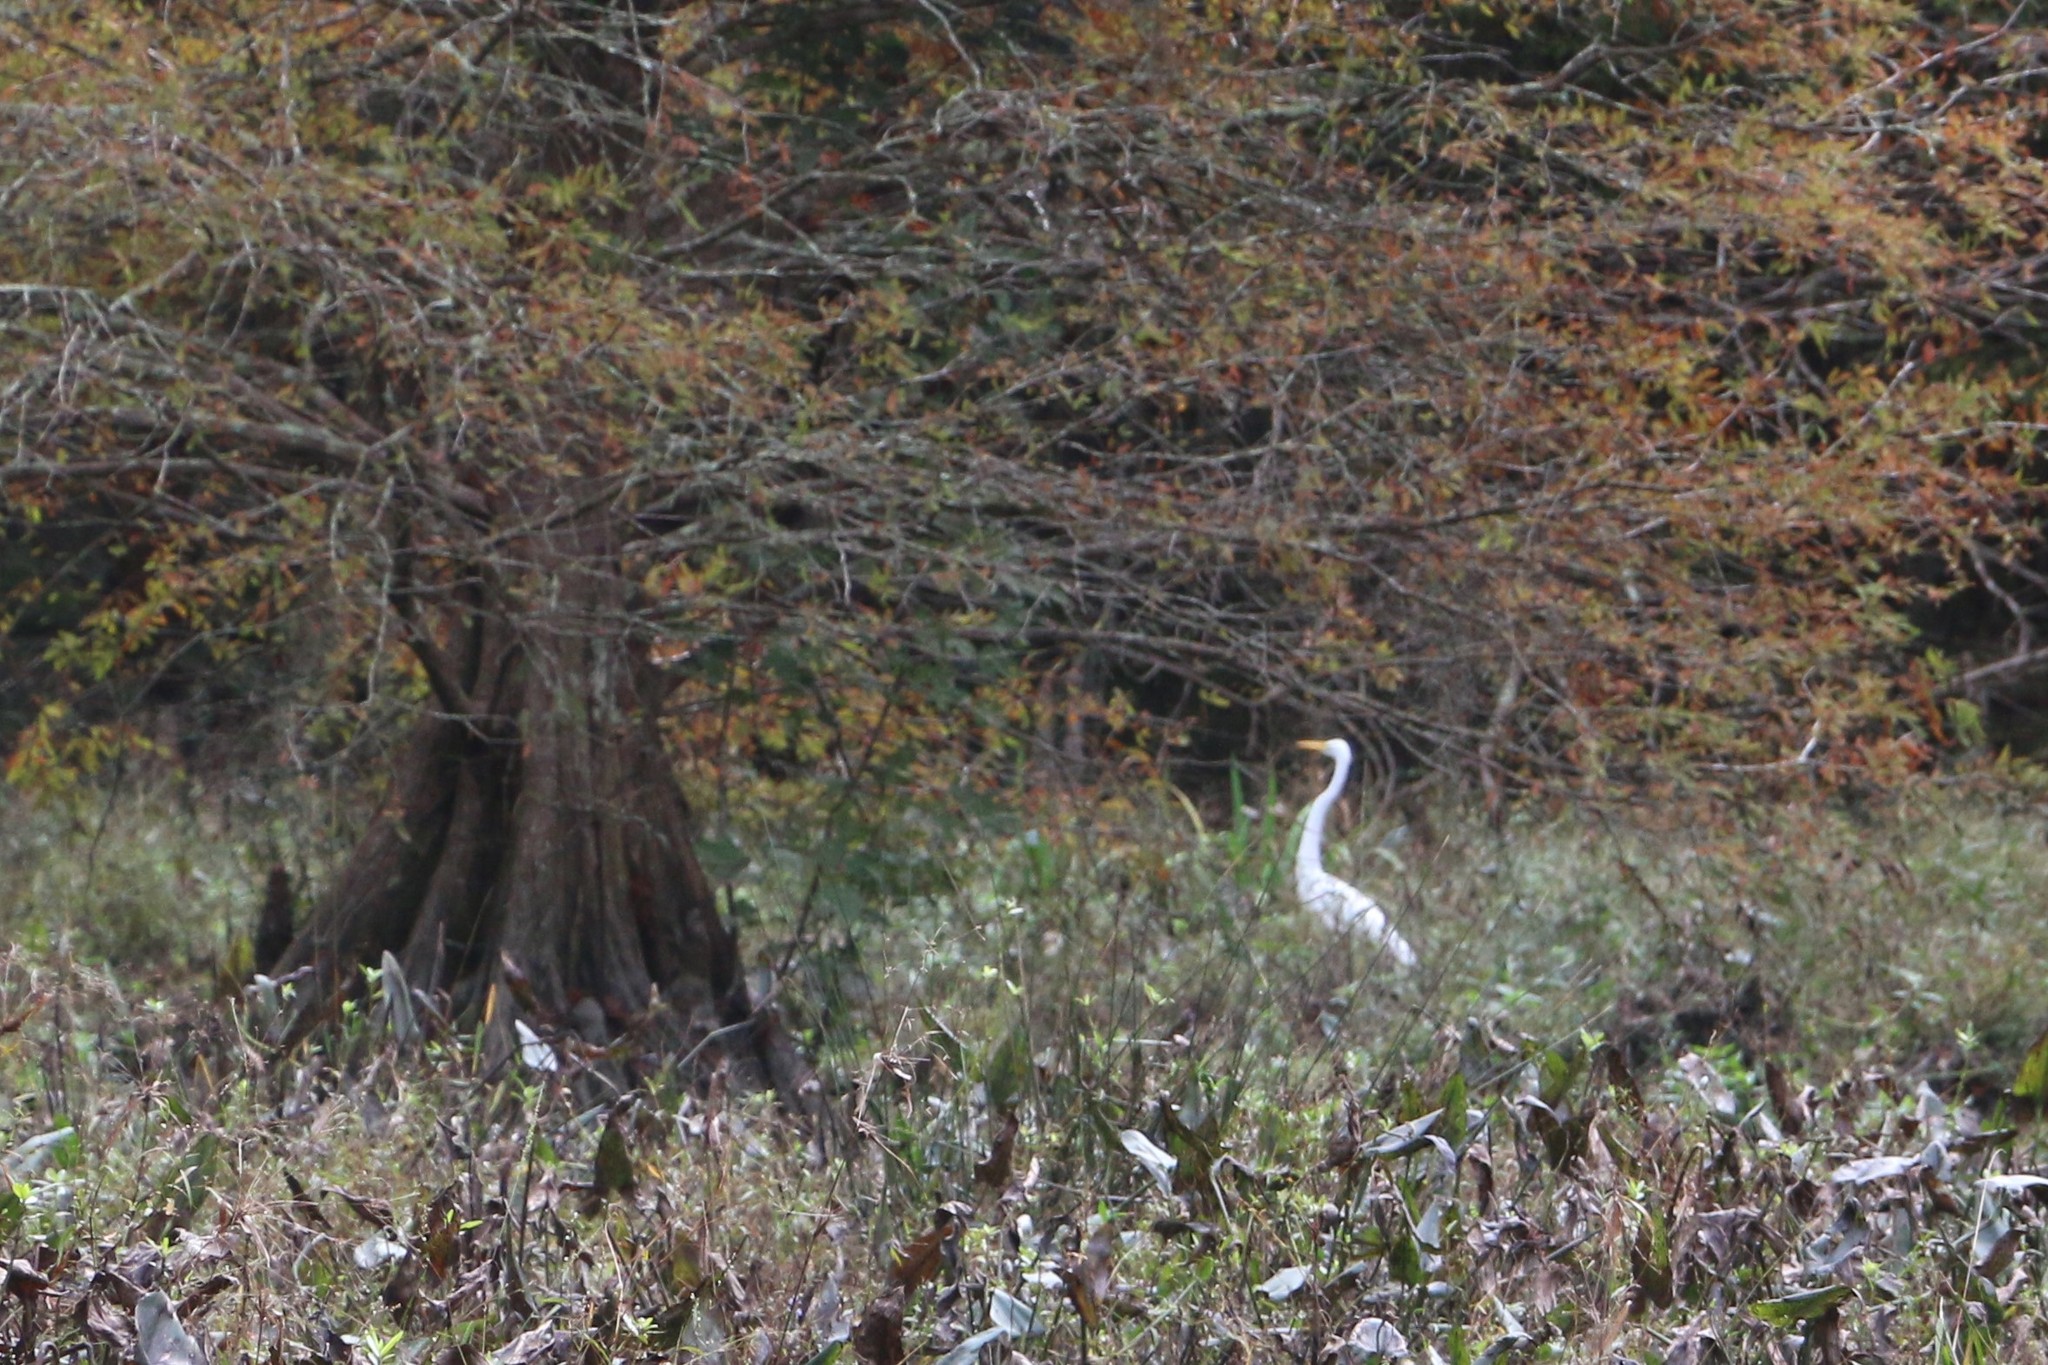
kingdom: Animalia
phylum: Chordata
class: Aves
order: Pelecaniformes
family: Ardeidae
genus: Ardea
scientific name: Ardea alba
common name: Great egret
